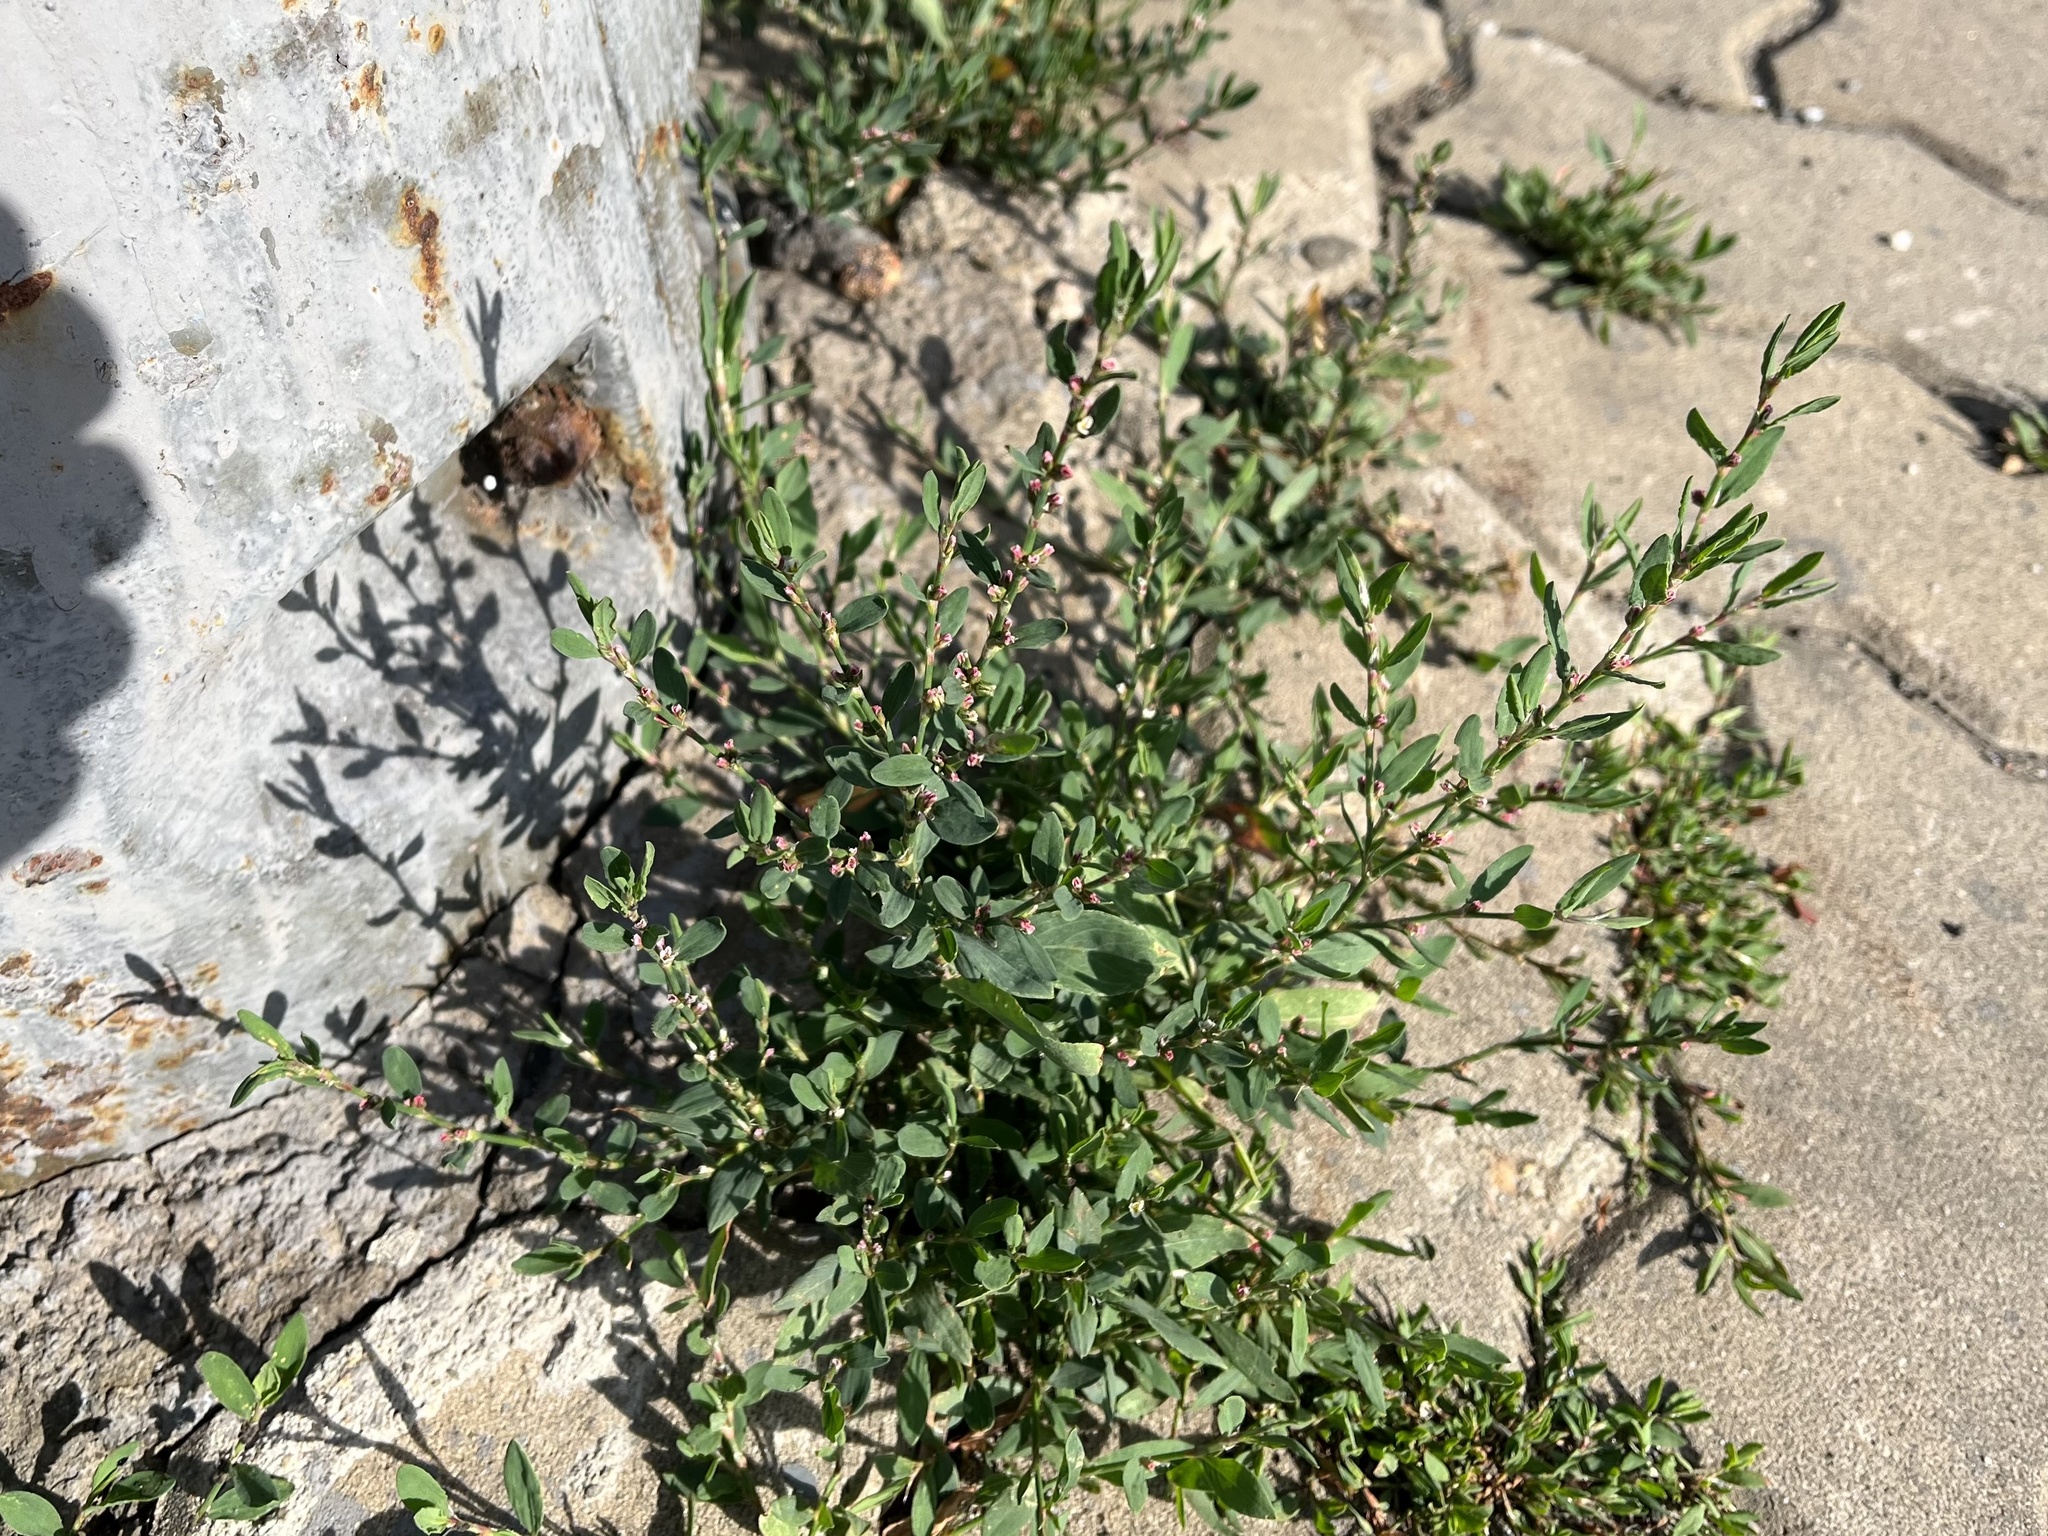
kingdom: Plantae
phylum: Tracheophyta
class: Magnoliopsida
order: Caryophyllales
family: Polygonaceae
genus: Polygonum
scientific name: Polygonum
